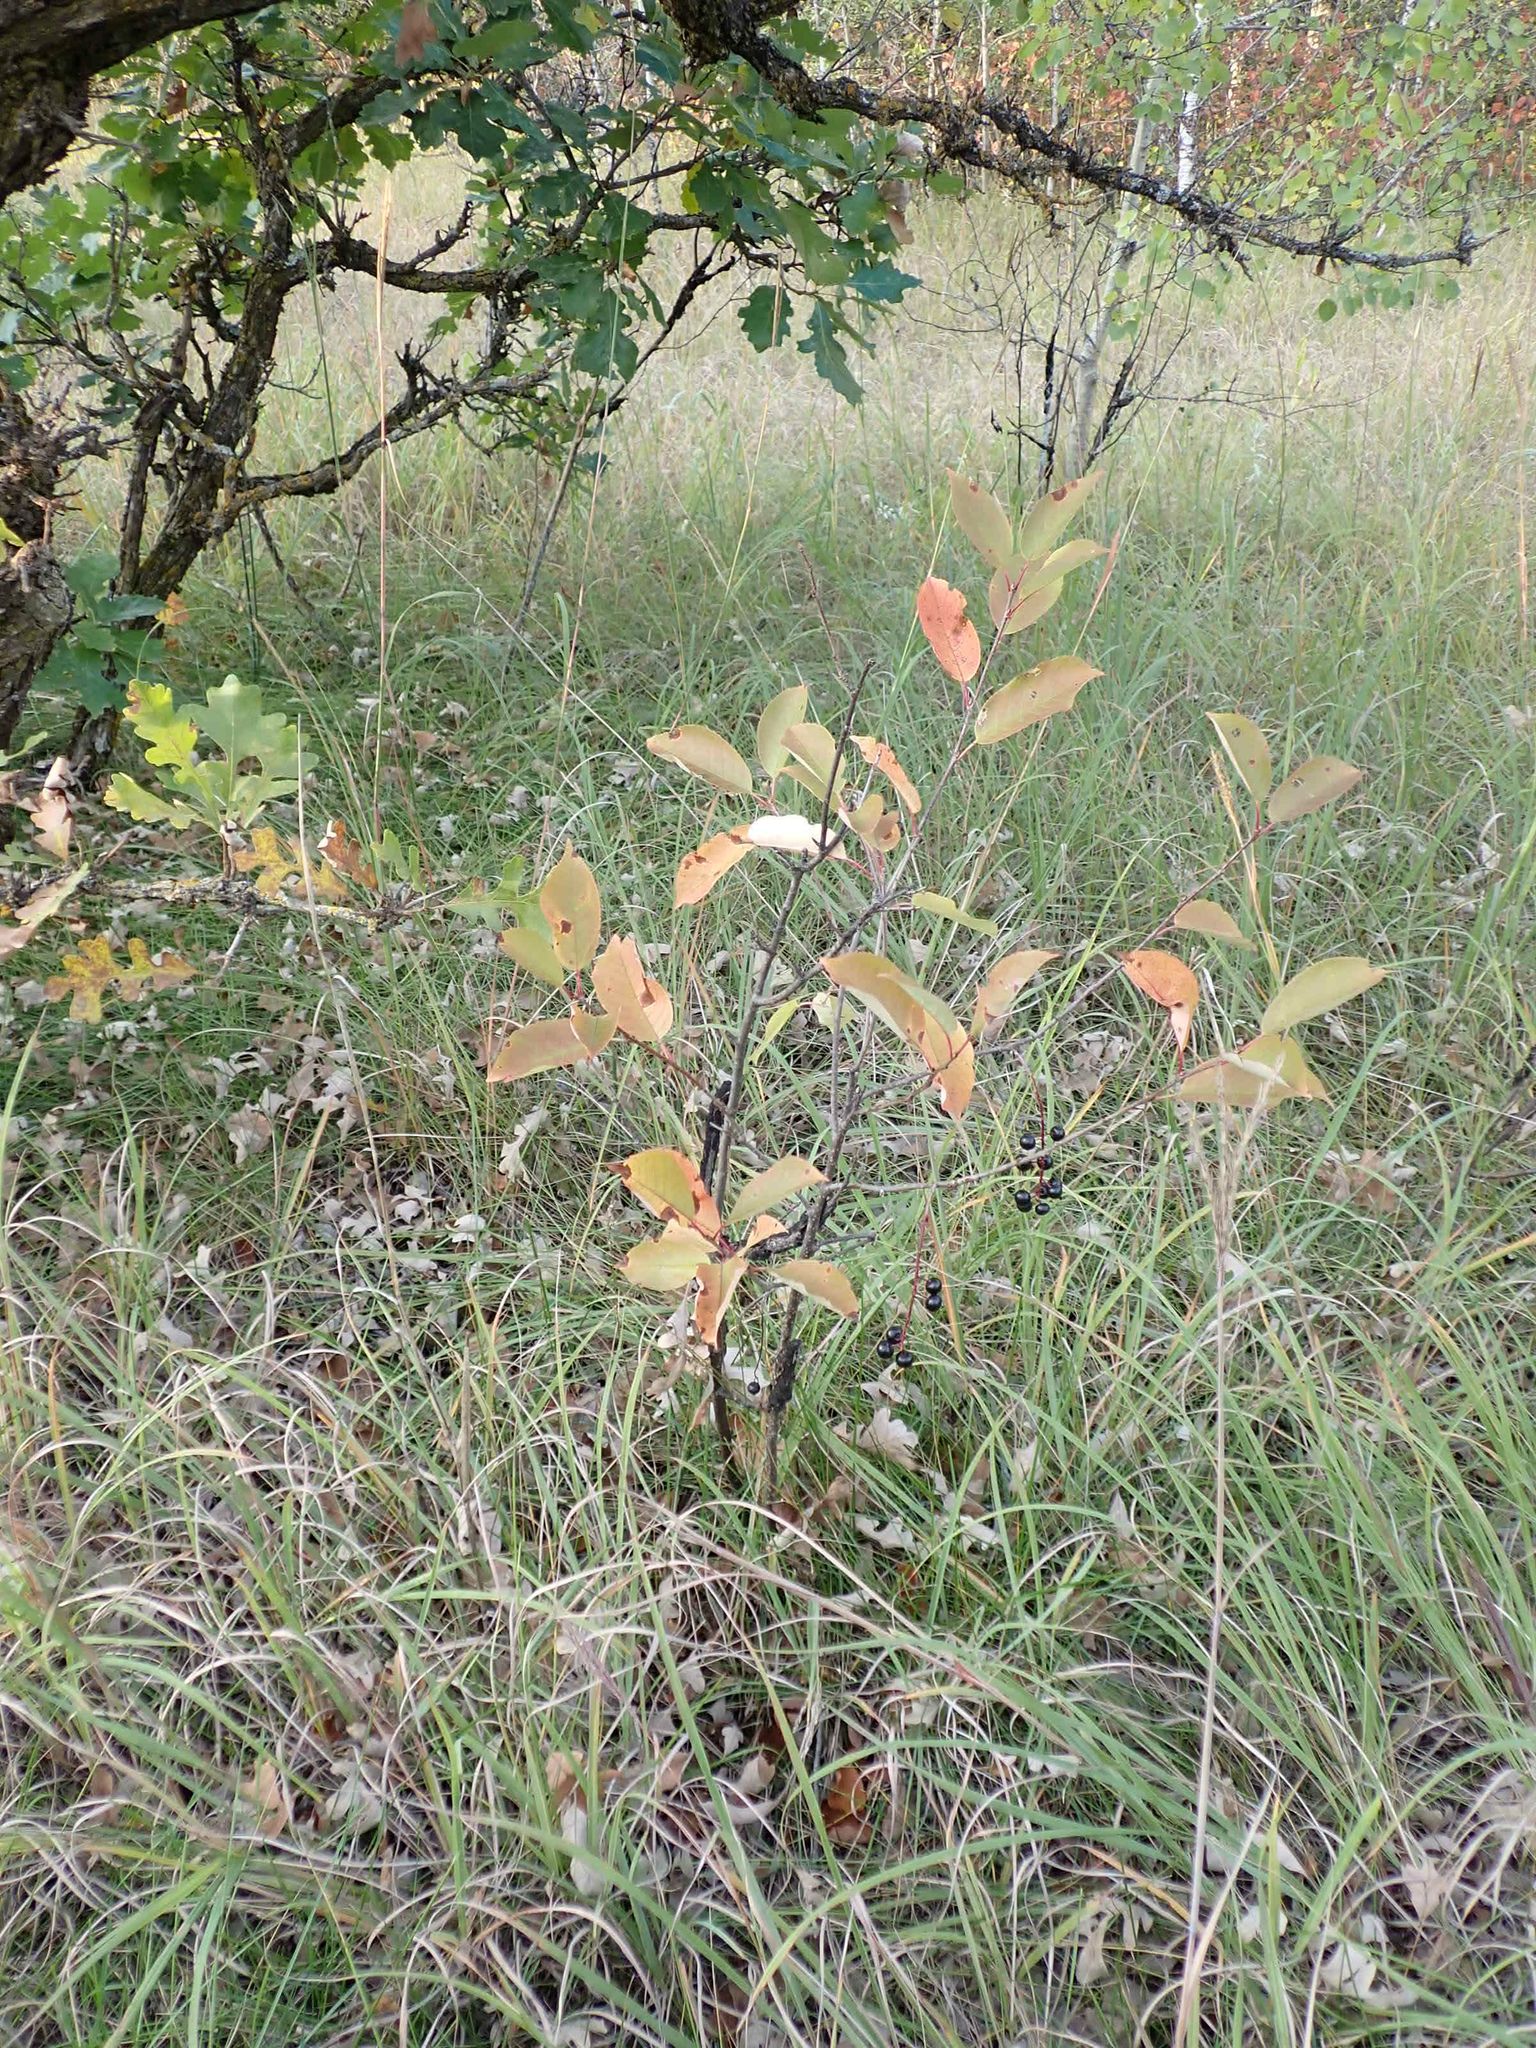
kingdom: Plantae
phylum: Tracheophyta
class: Magnoliopsida
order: Rosales
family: Rosaceae
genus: Prunus
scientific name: Prunus virginiana
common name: Chokecherry
